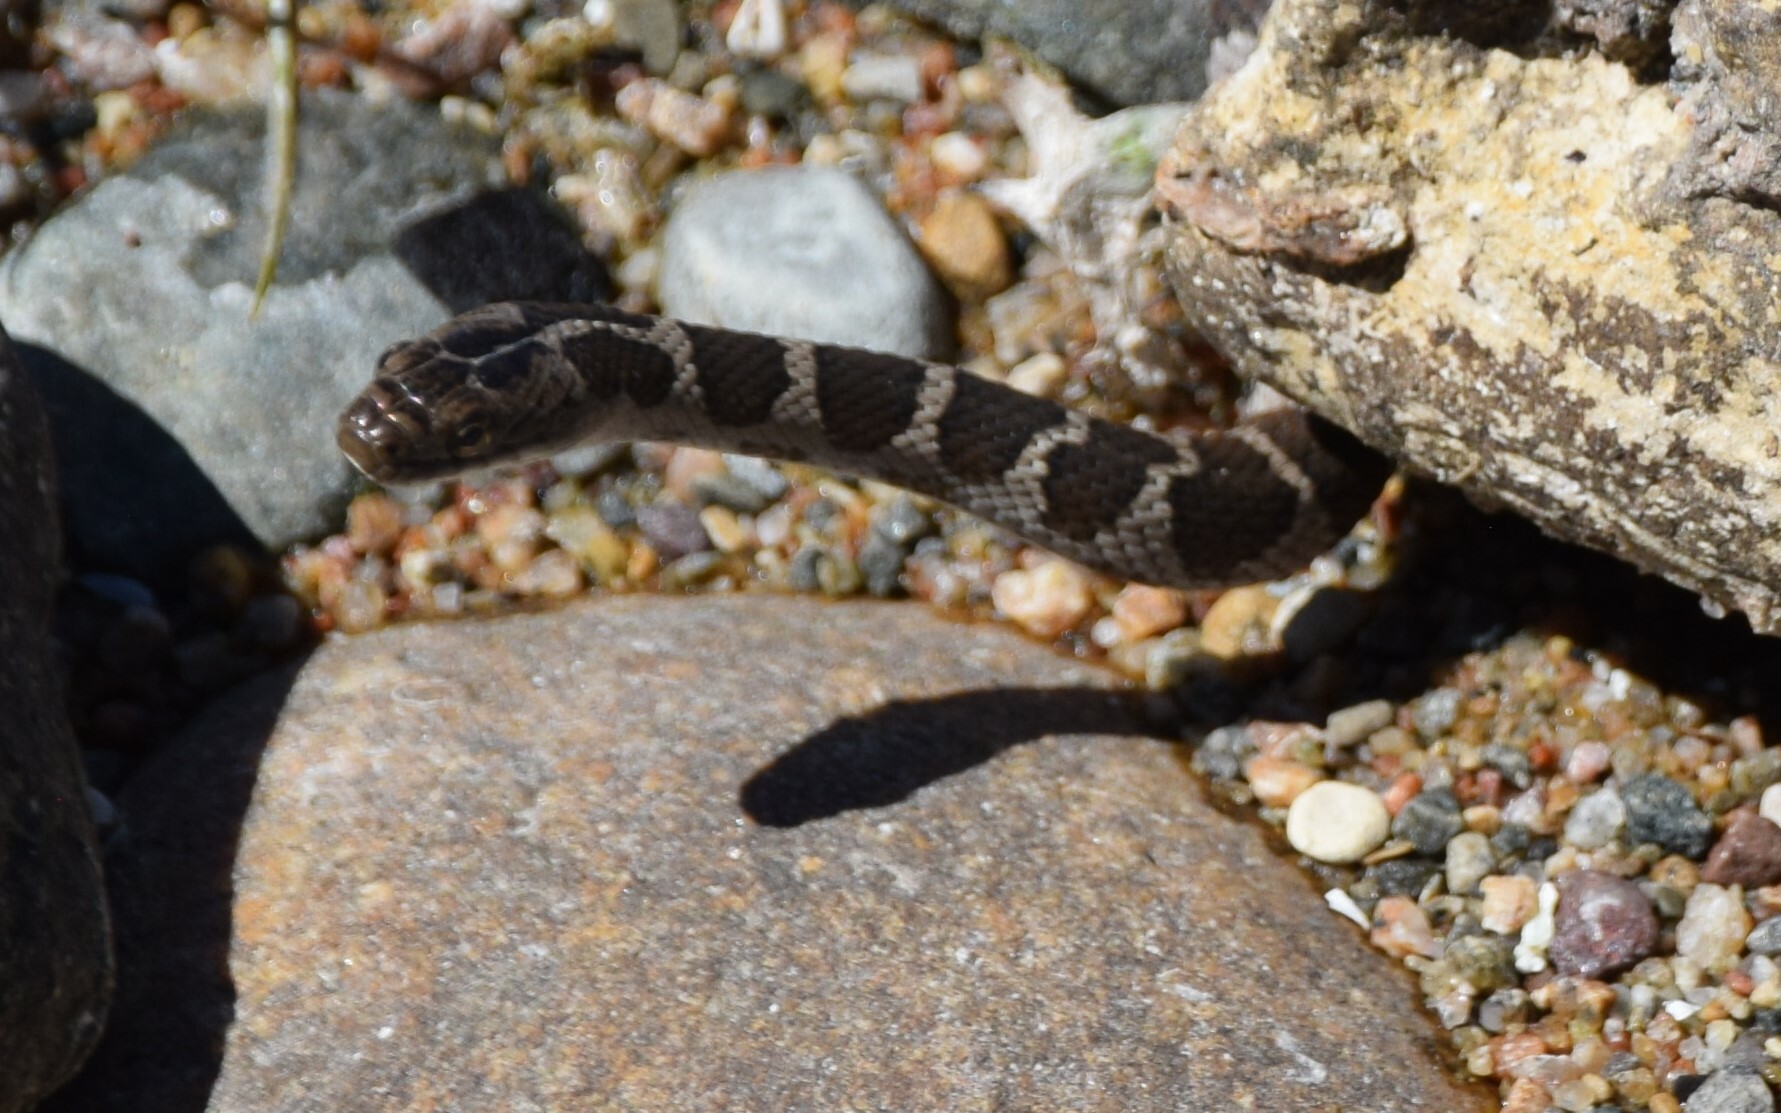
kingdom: Animalia
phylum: Chordata
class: Squamata
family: Colubridae
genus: Nerodia
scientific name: Nerodia sipedon
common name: Northern water snake
